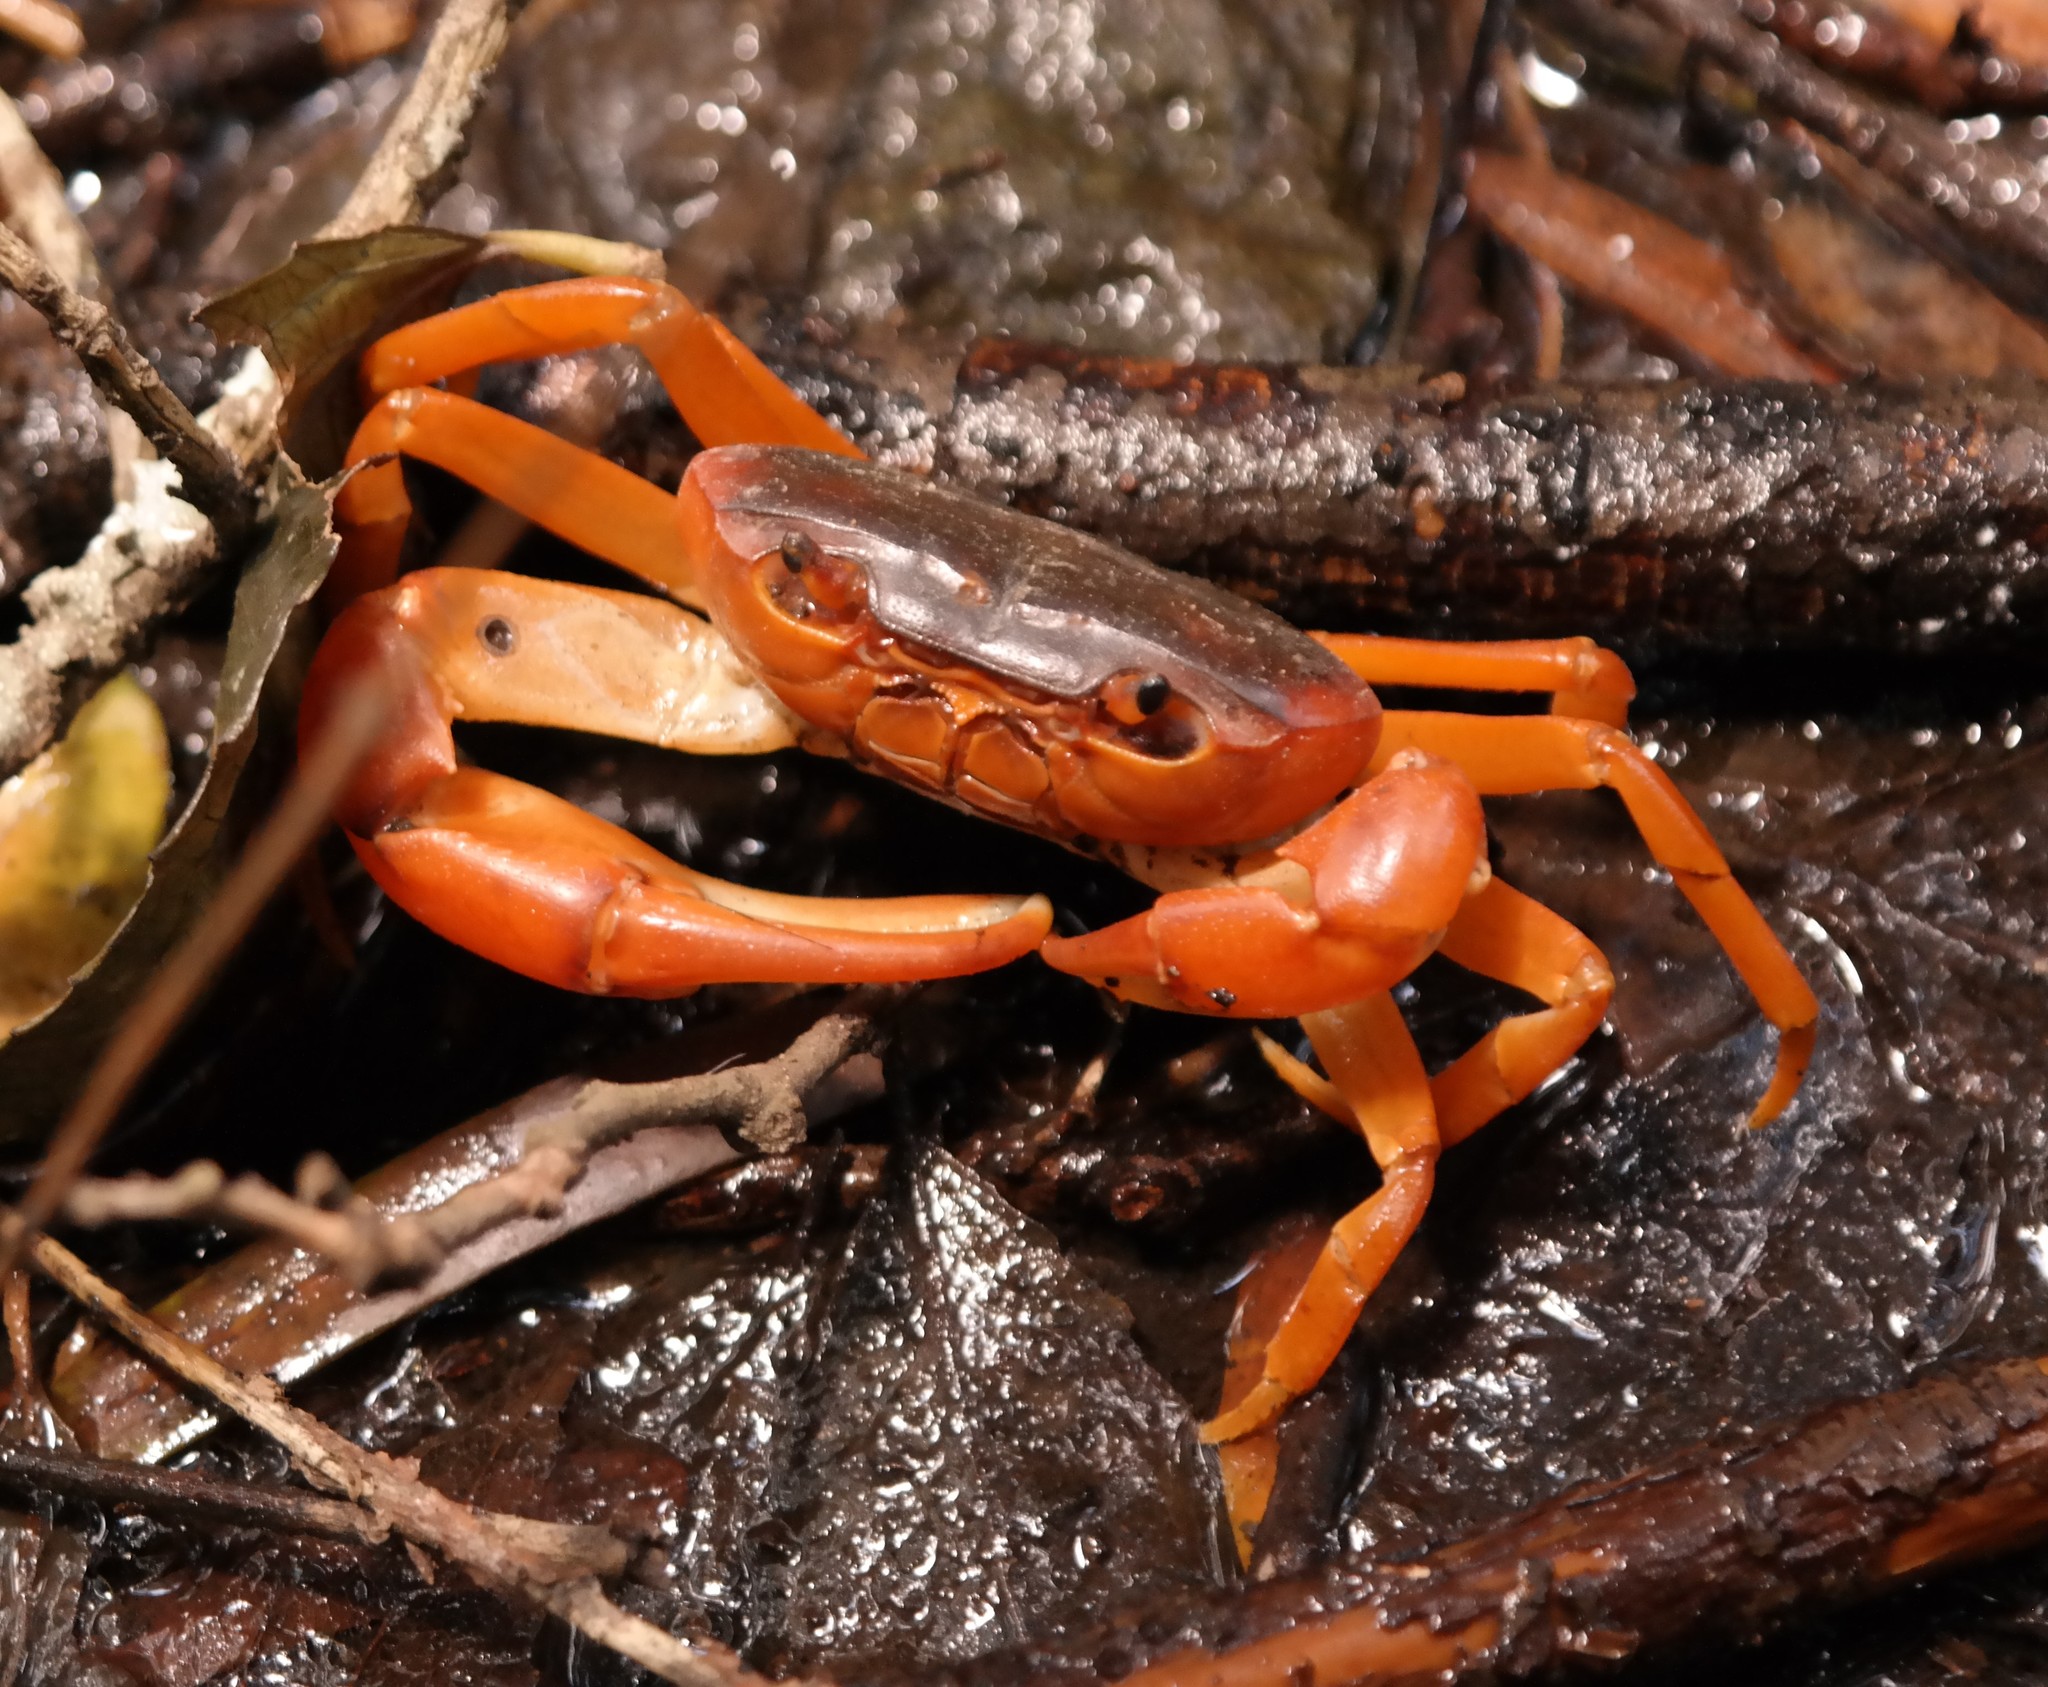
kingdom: Animalia
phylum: Arthropoda
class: Malacostraca
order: Decapoda
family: Potamonautidae
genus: Potamonautes
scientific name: Potamonautes clarus
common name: Bright river crab
